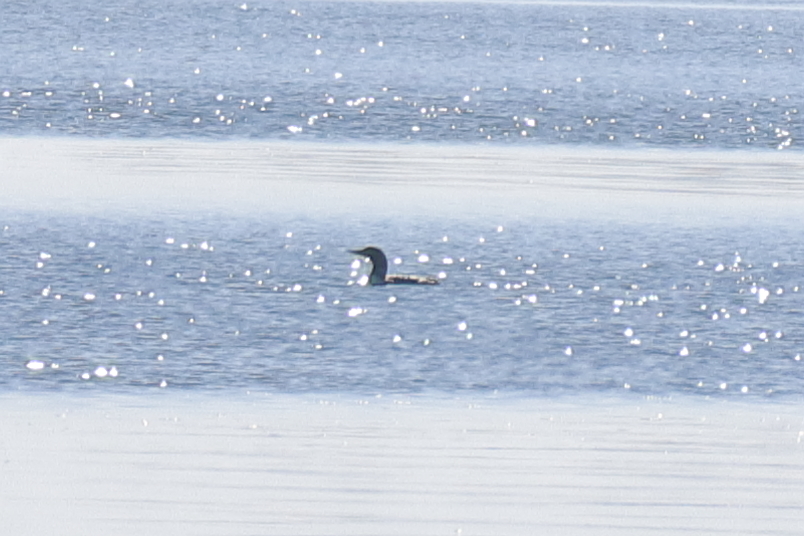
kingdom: Animalia
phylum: Chordata
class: Aves
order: Gaviiformes
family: Gaviidae
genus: Gavia
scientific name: Gavia pacifica
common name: Pacific loon
